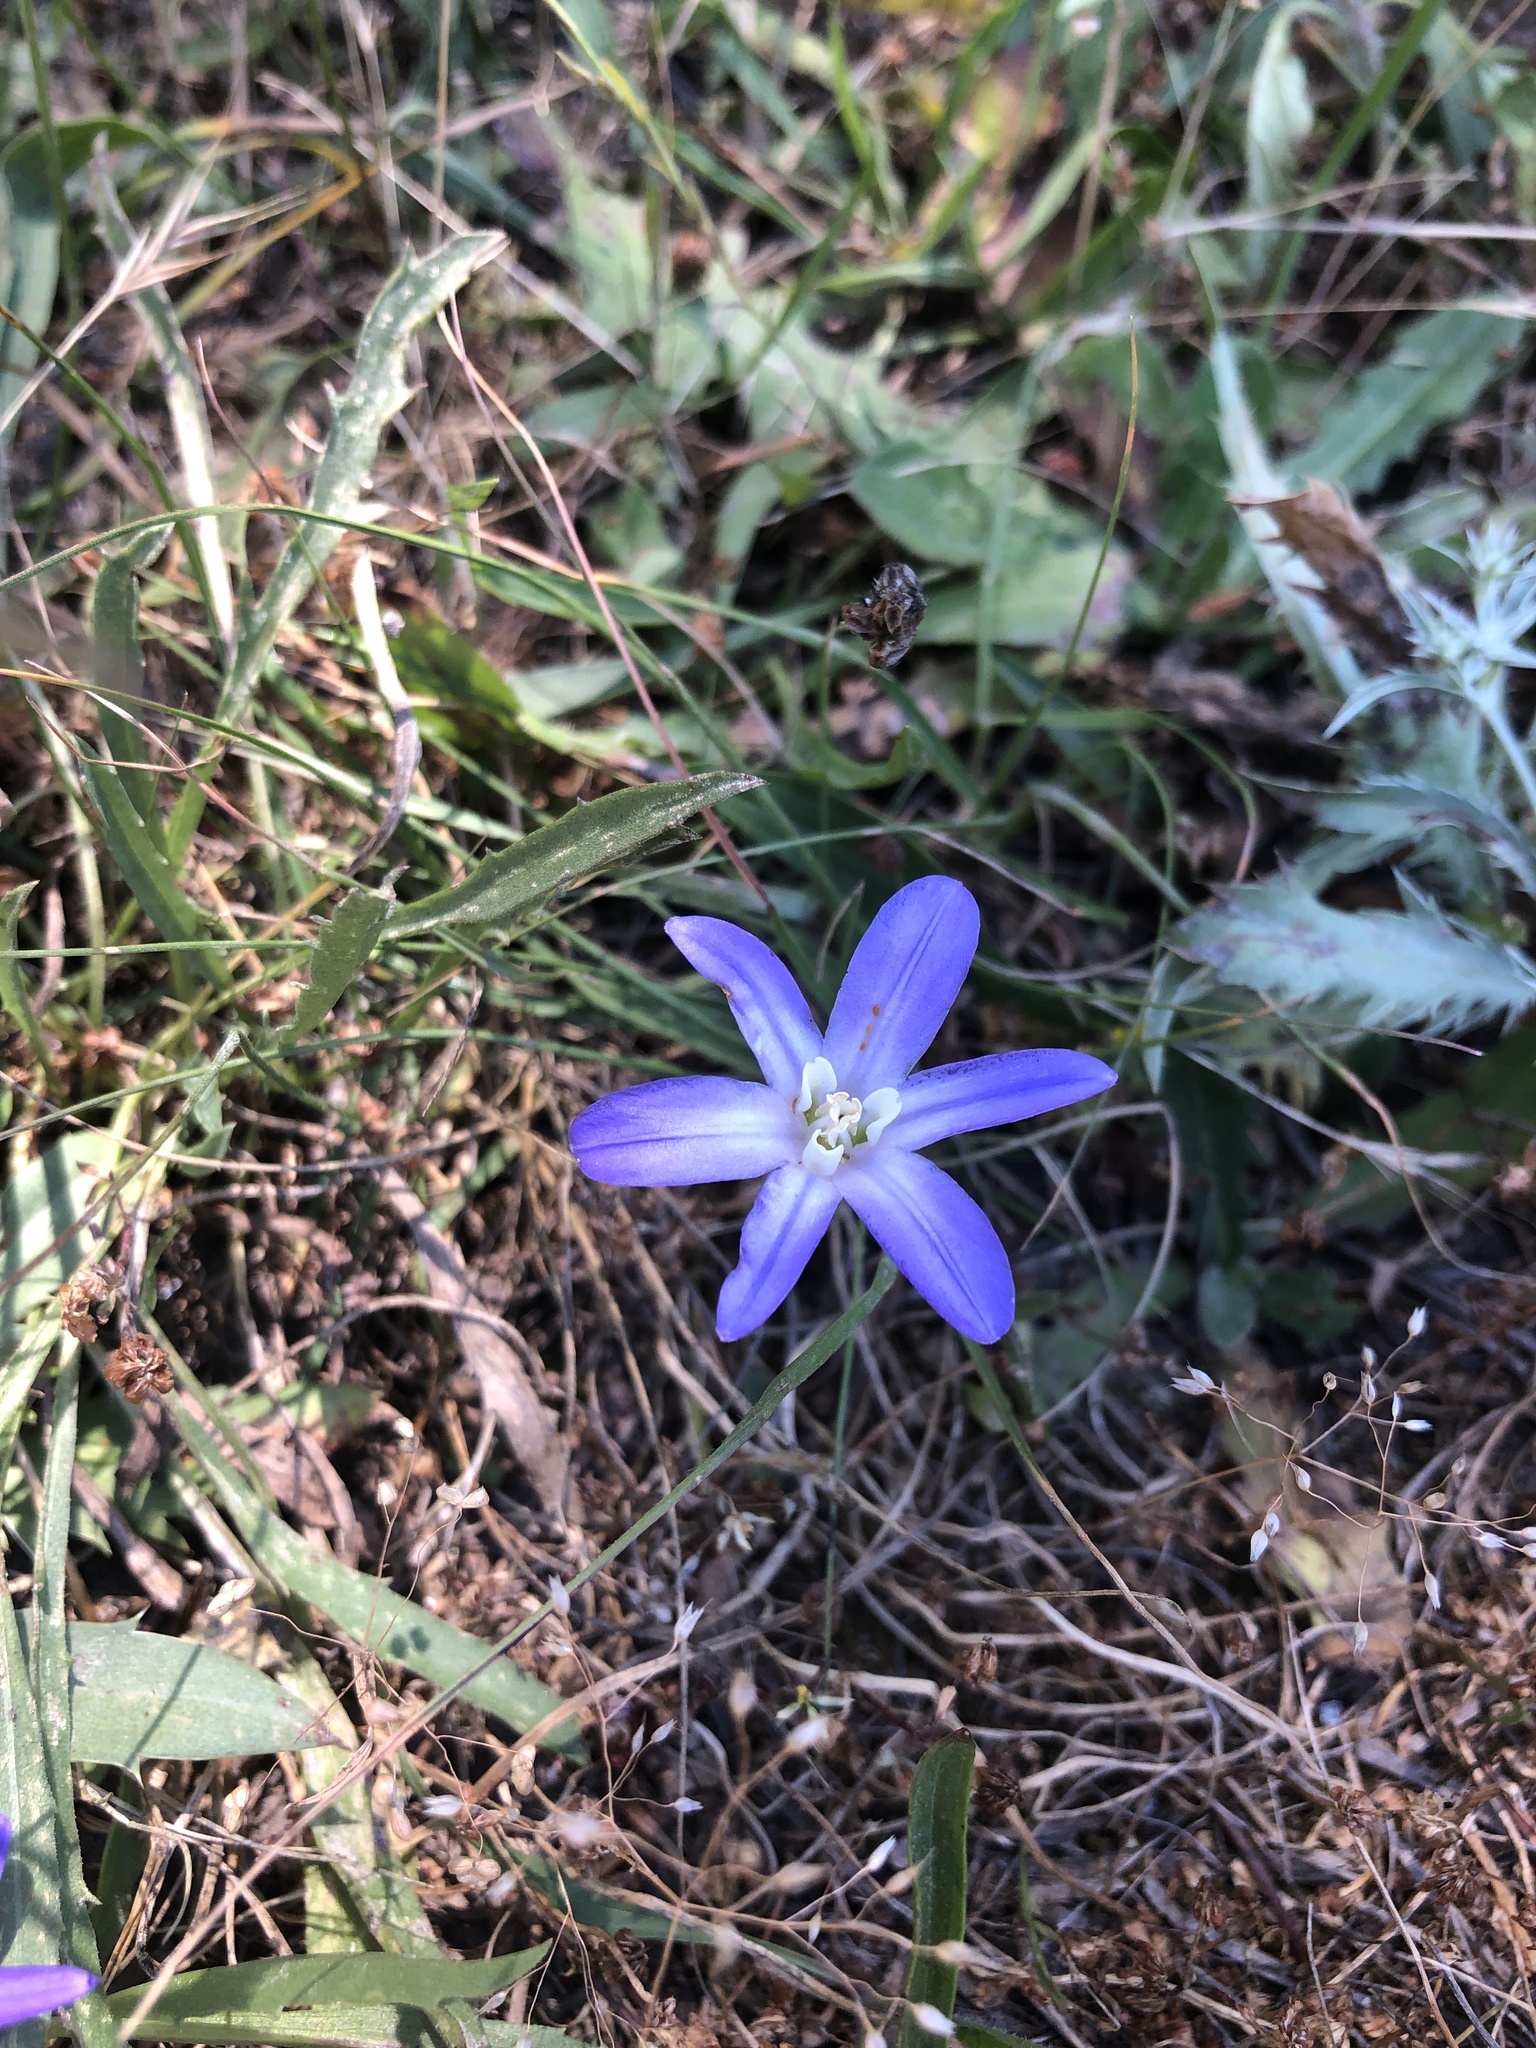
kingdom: Plantae
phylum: Tracheophyta
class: Liliopsida
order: Asparagales
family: Asparagaceae
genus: Brodiaea
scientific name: Brodiaea terrestris
